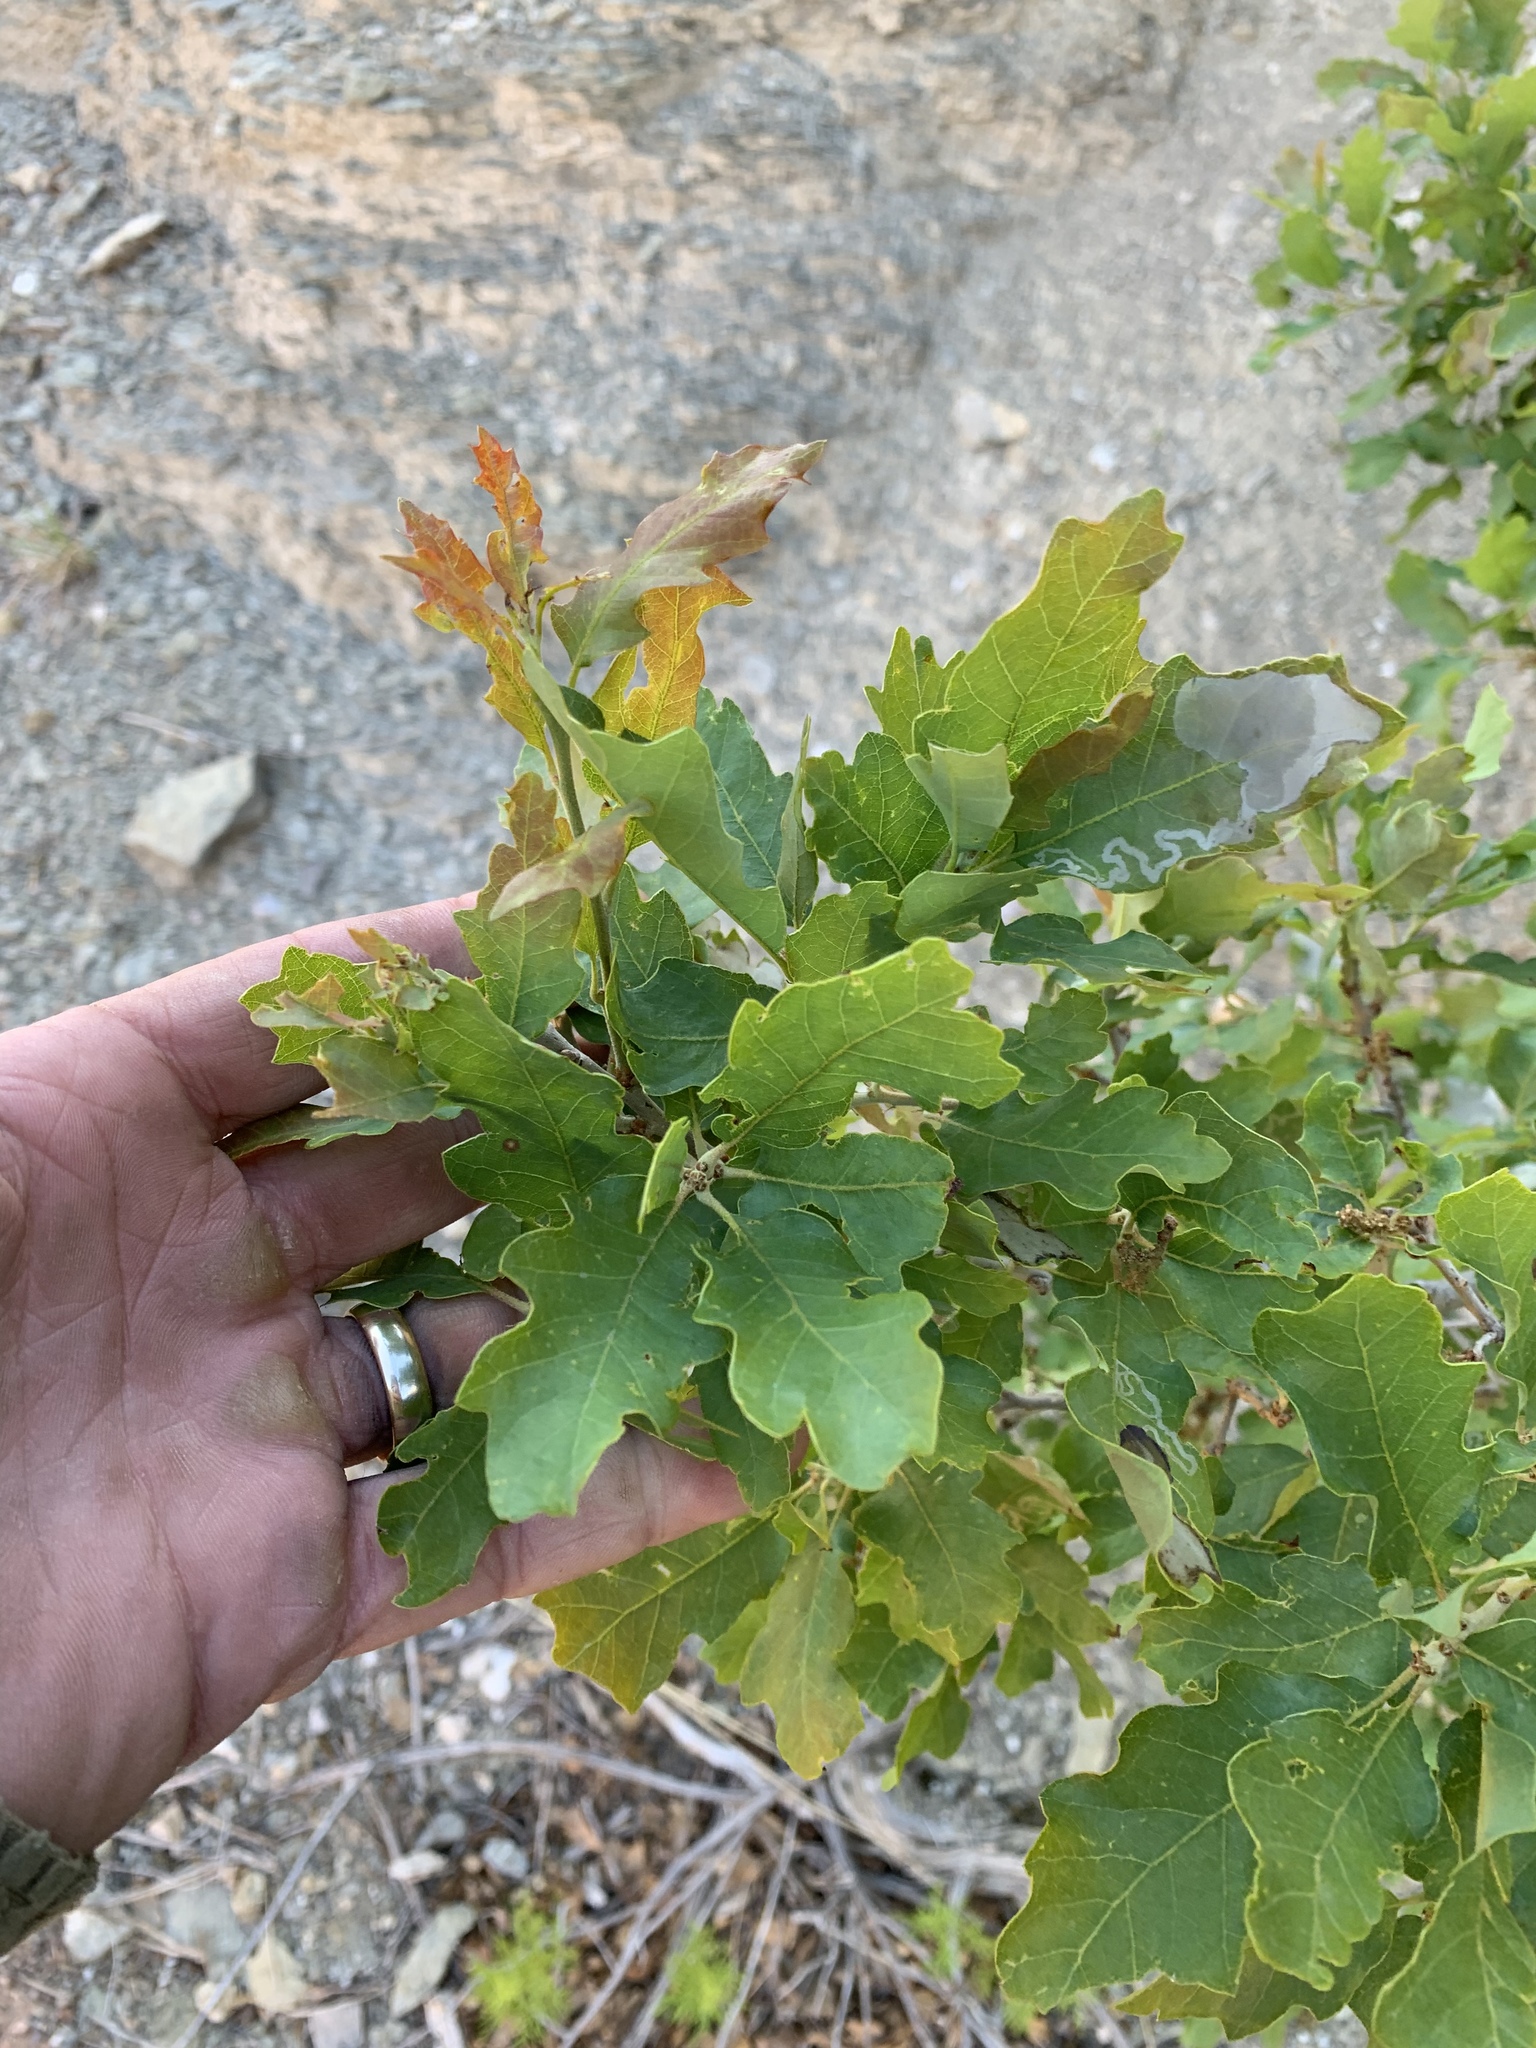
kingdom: Plantae
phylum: Tracheophyta
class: Magnoliopsida
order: Fagales
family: Fagaceae
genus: Quercus
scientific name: Quercus undulata
